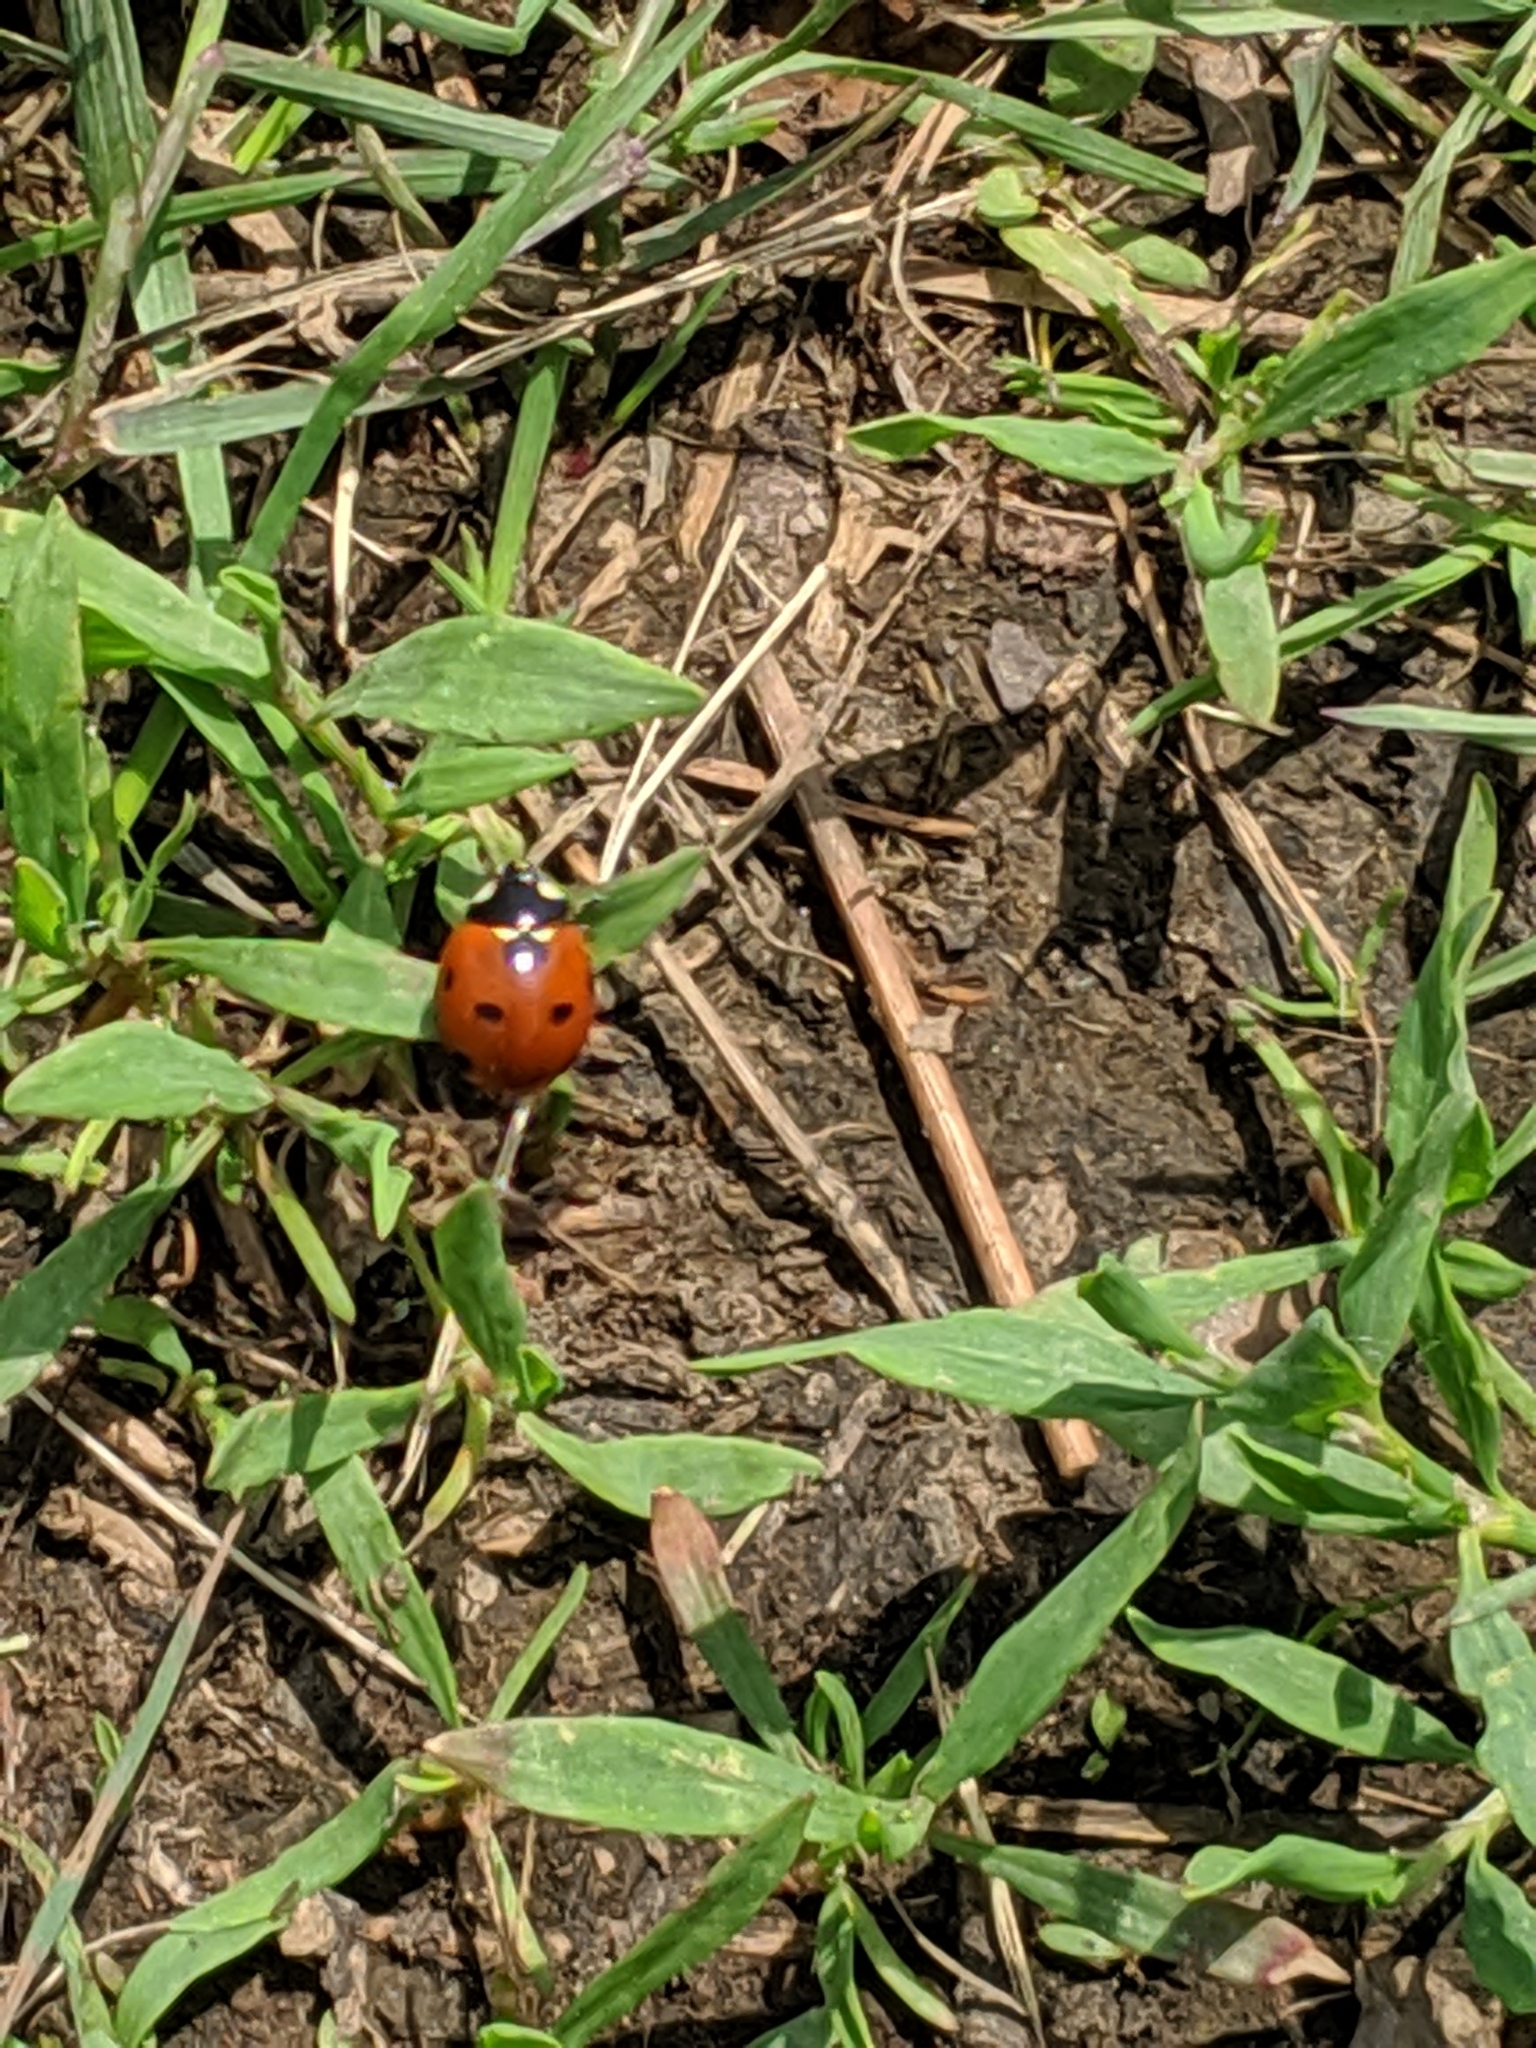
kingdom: Animalia
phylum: Arthropoda
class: Insecta
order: Coleoptera
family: Coccinellidae
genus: Coccinella
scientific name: Coccinella septempunctata
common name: Sevenspotted lady beetle
